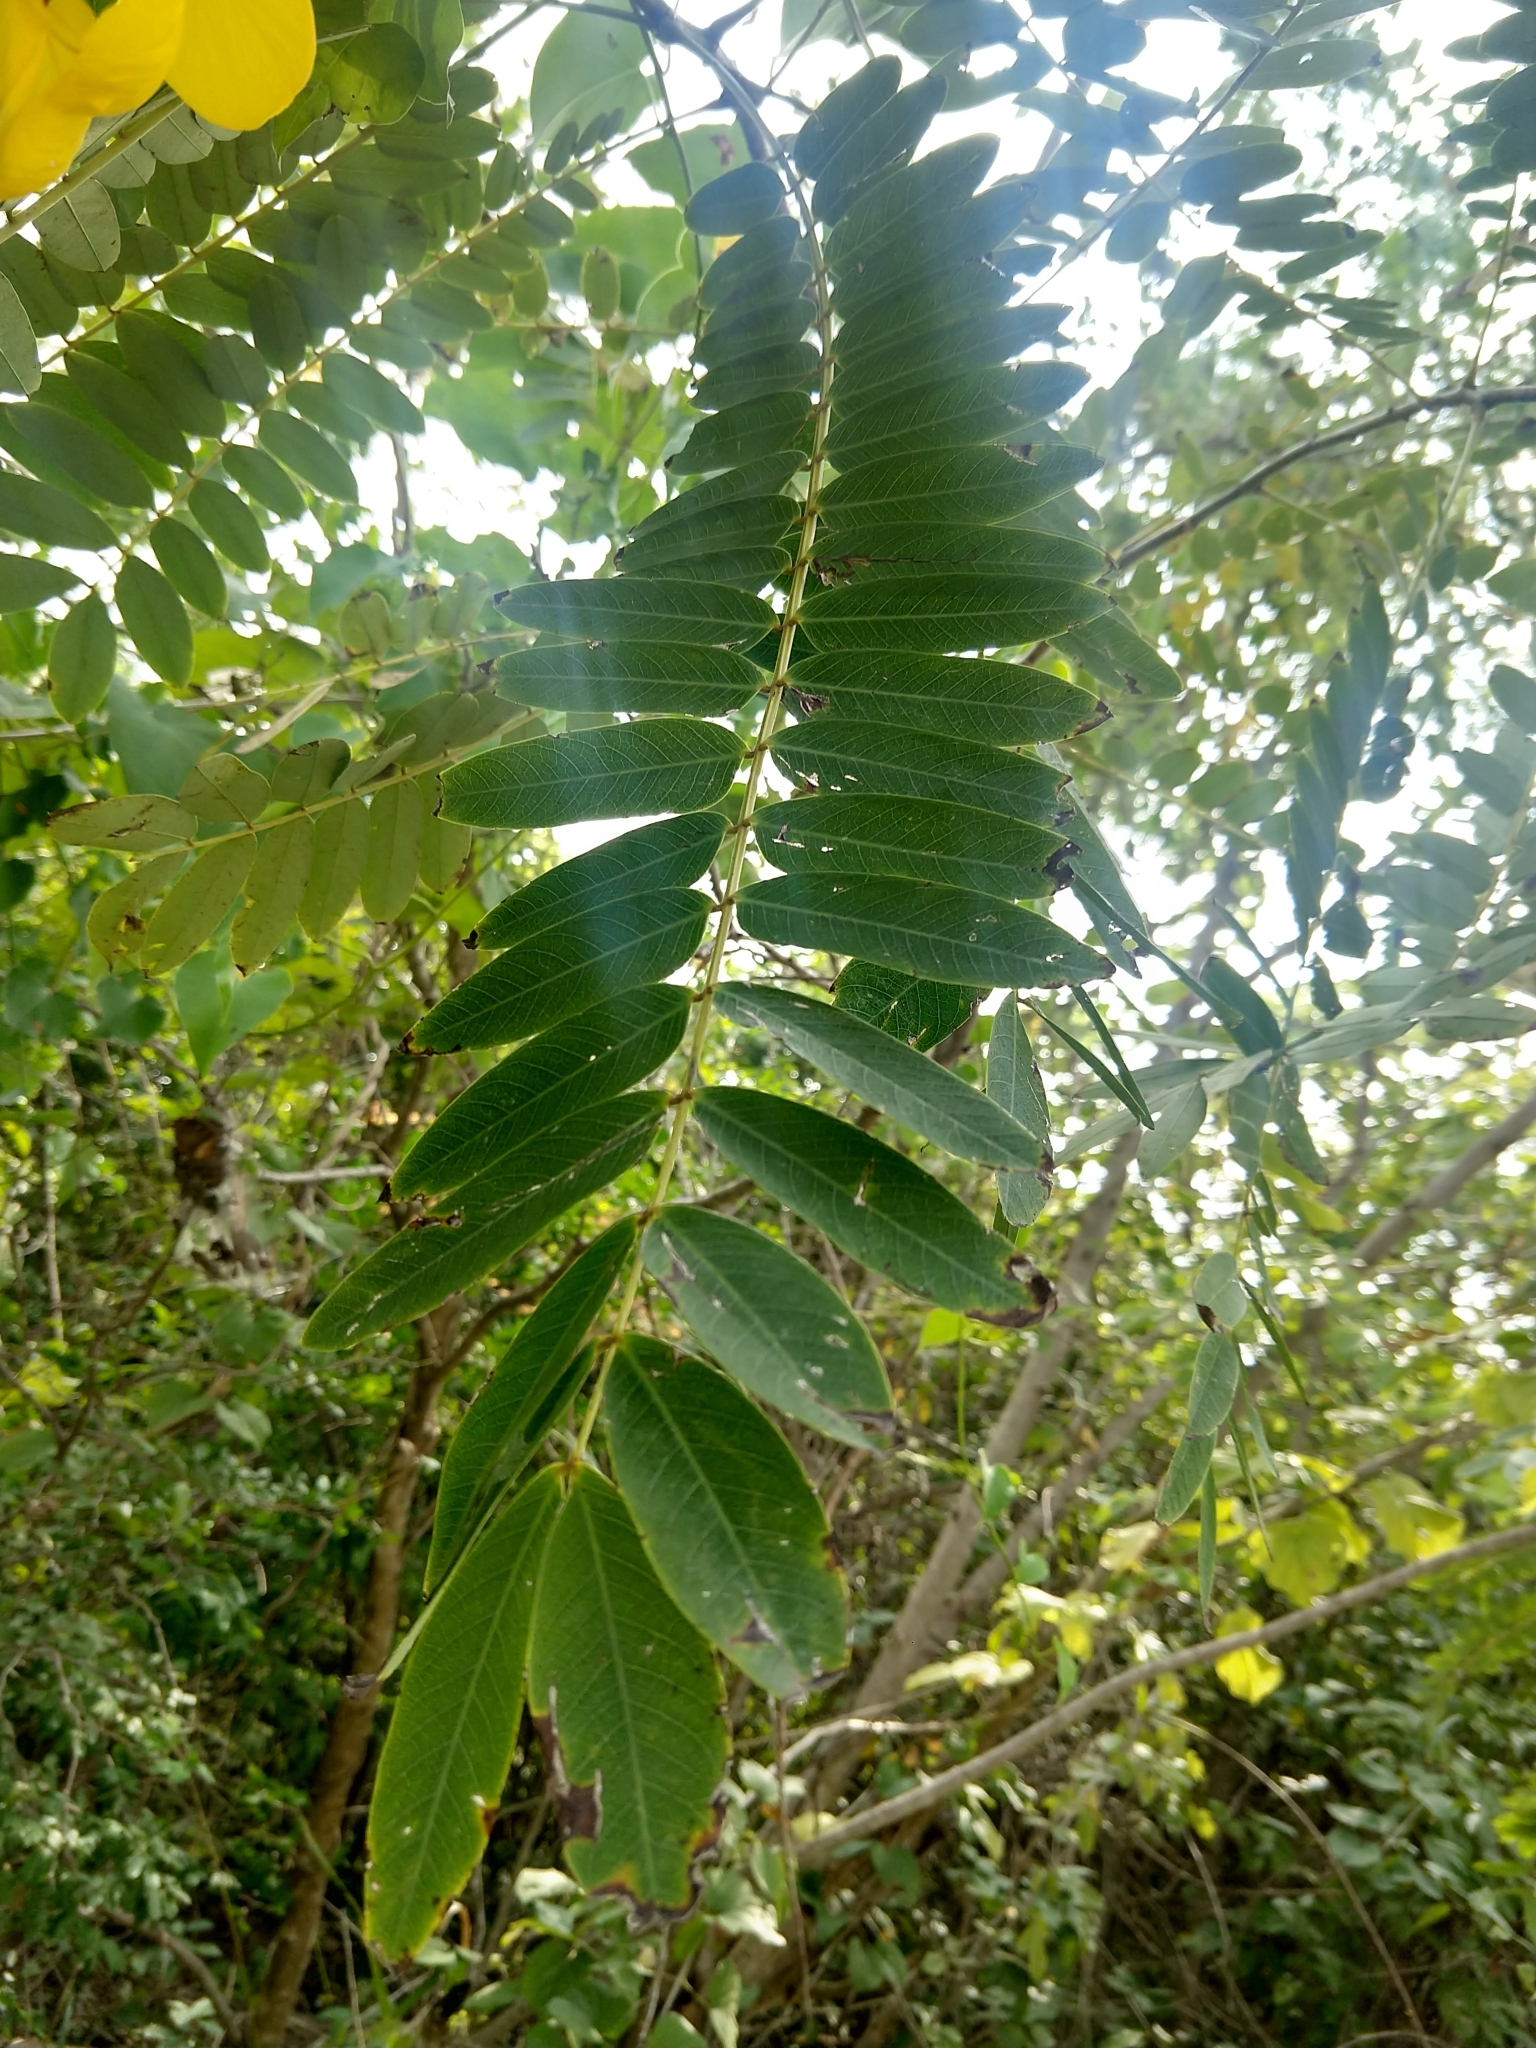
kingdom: Plantae
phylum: Tracheophyta
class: Magnoliopsida
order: Fabales
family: Fabaceae
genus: Senna
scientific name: Senna multijuga
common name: False sicklepod
